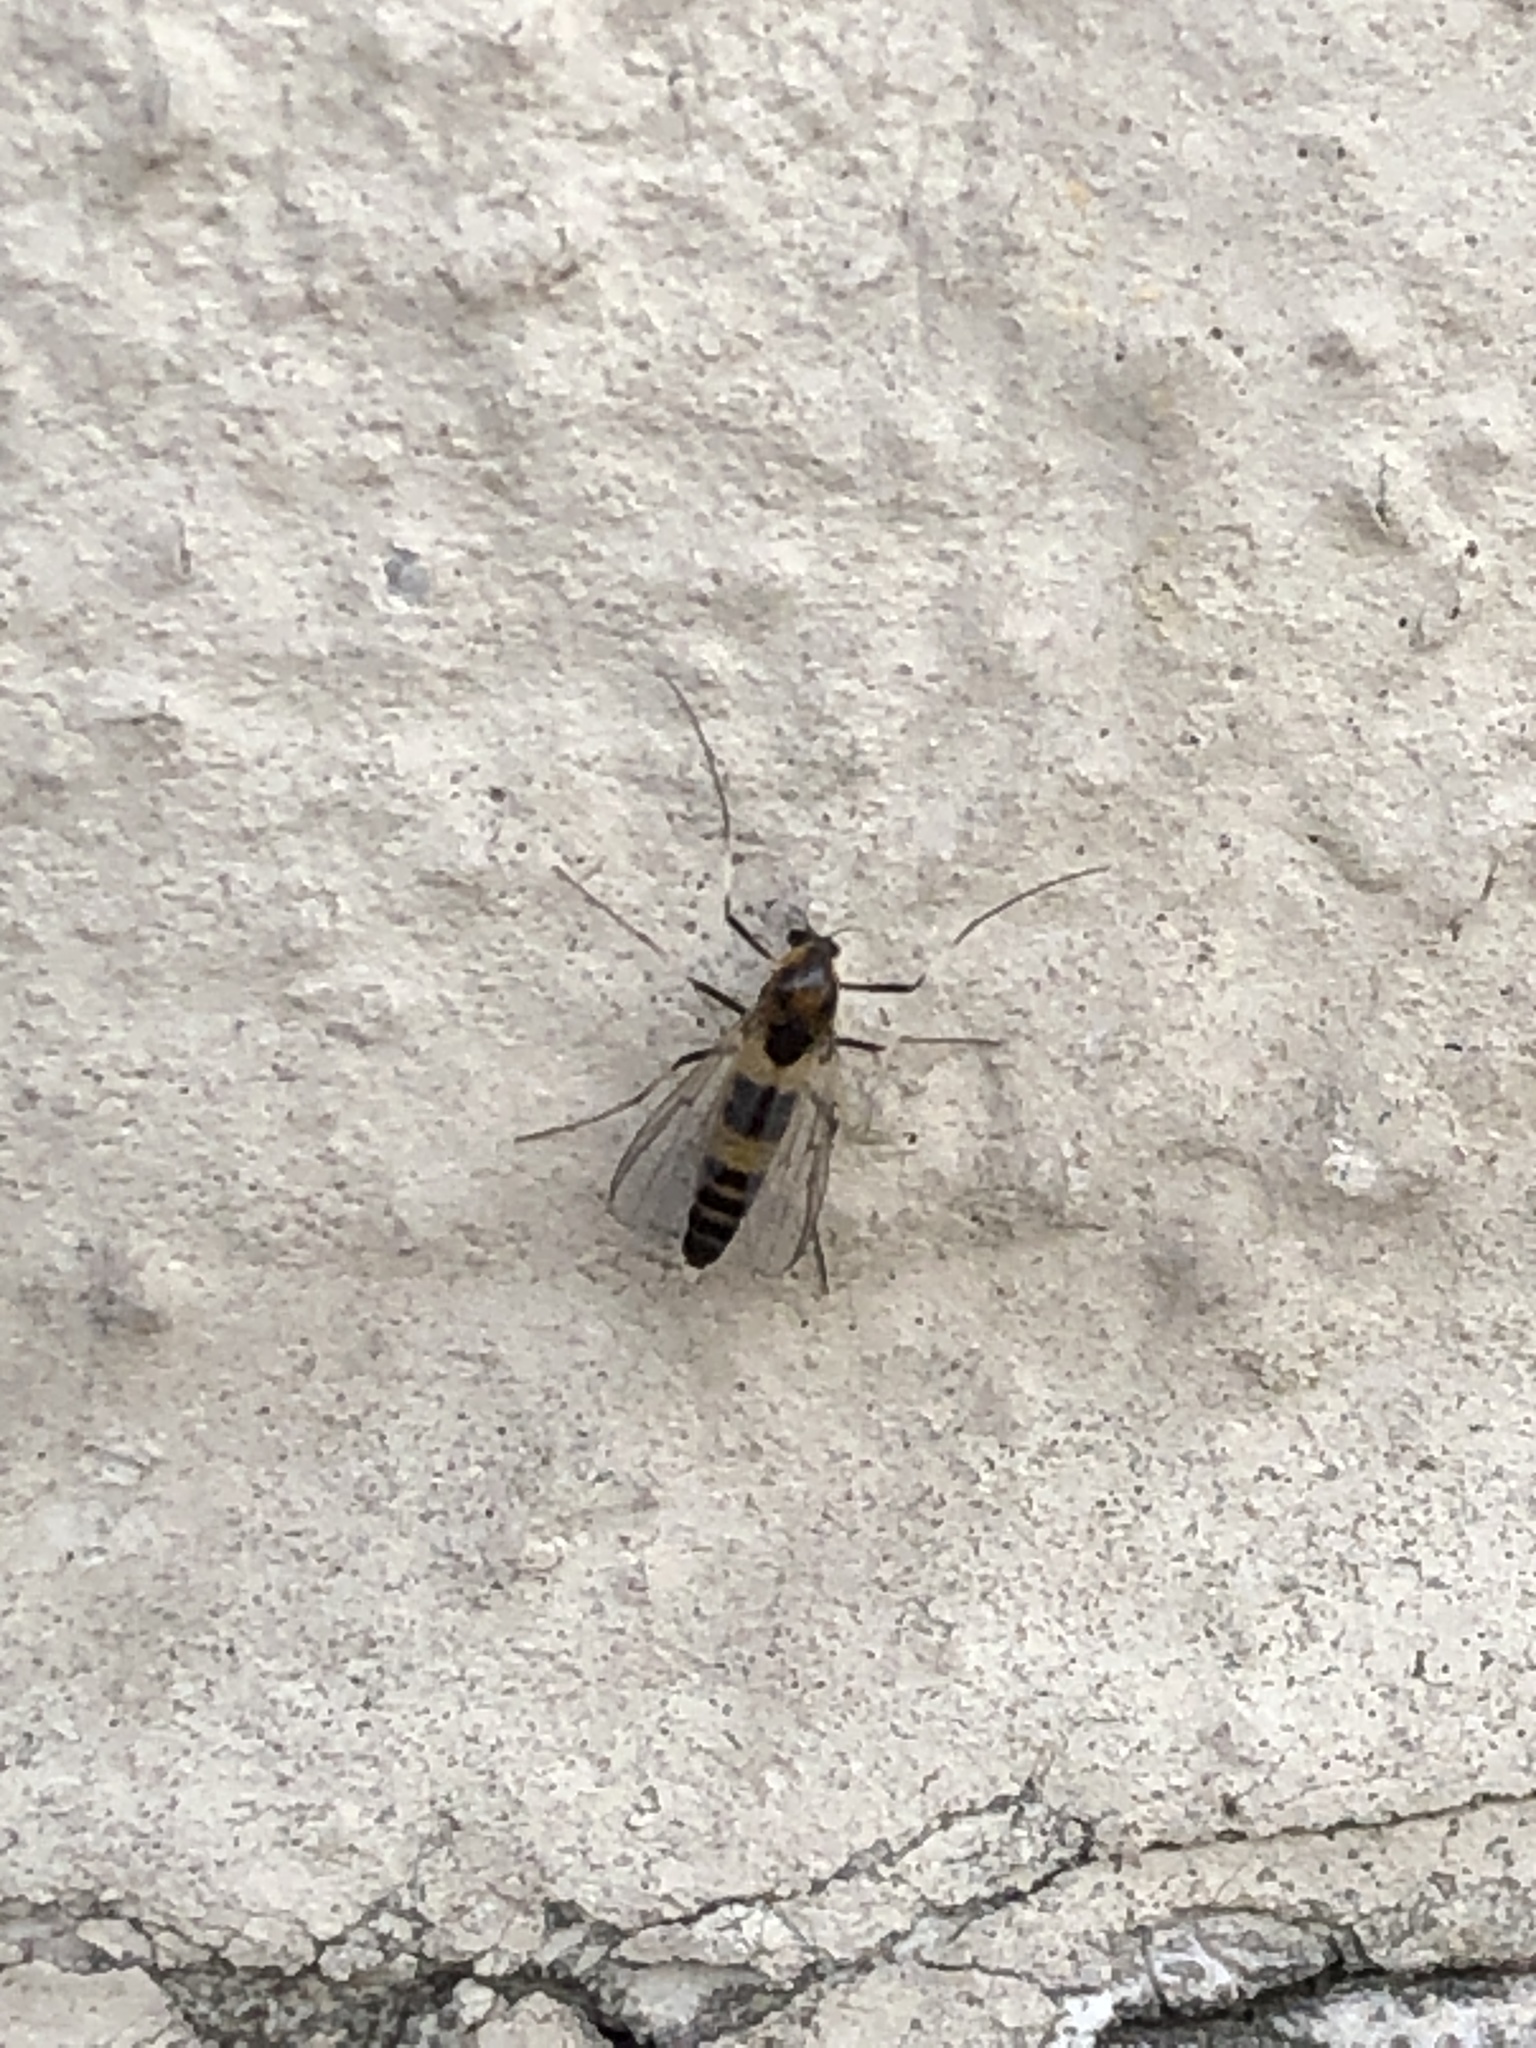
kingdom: Animalia
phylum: Arthropoda
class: Insecta
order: Diptera
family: Chironomidae
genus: Cricotopus
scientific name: Cricotopus
